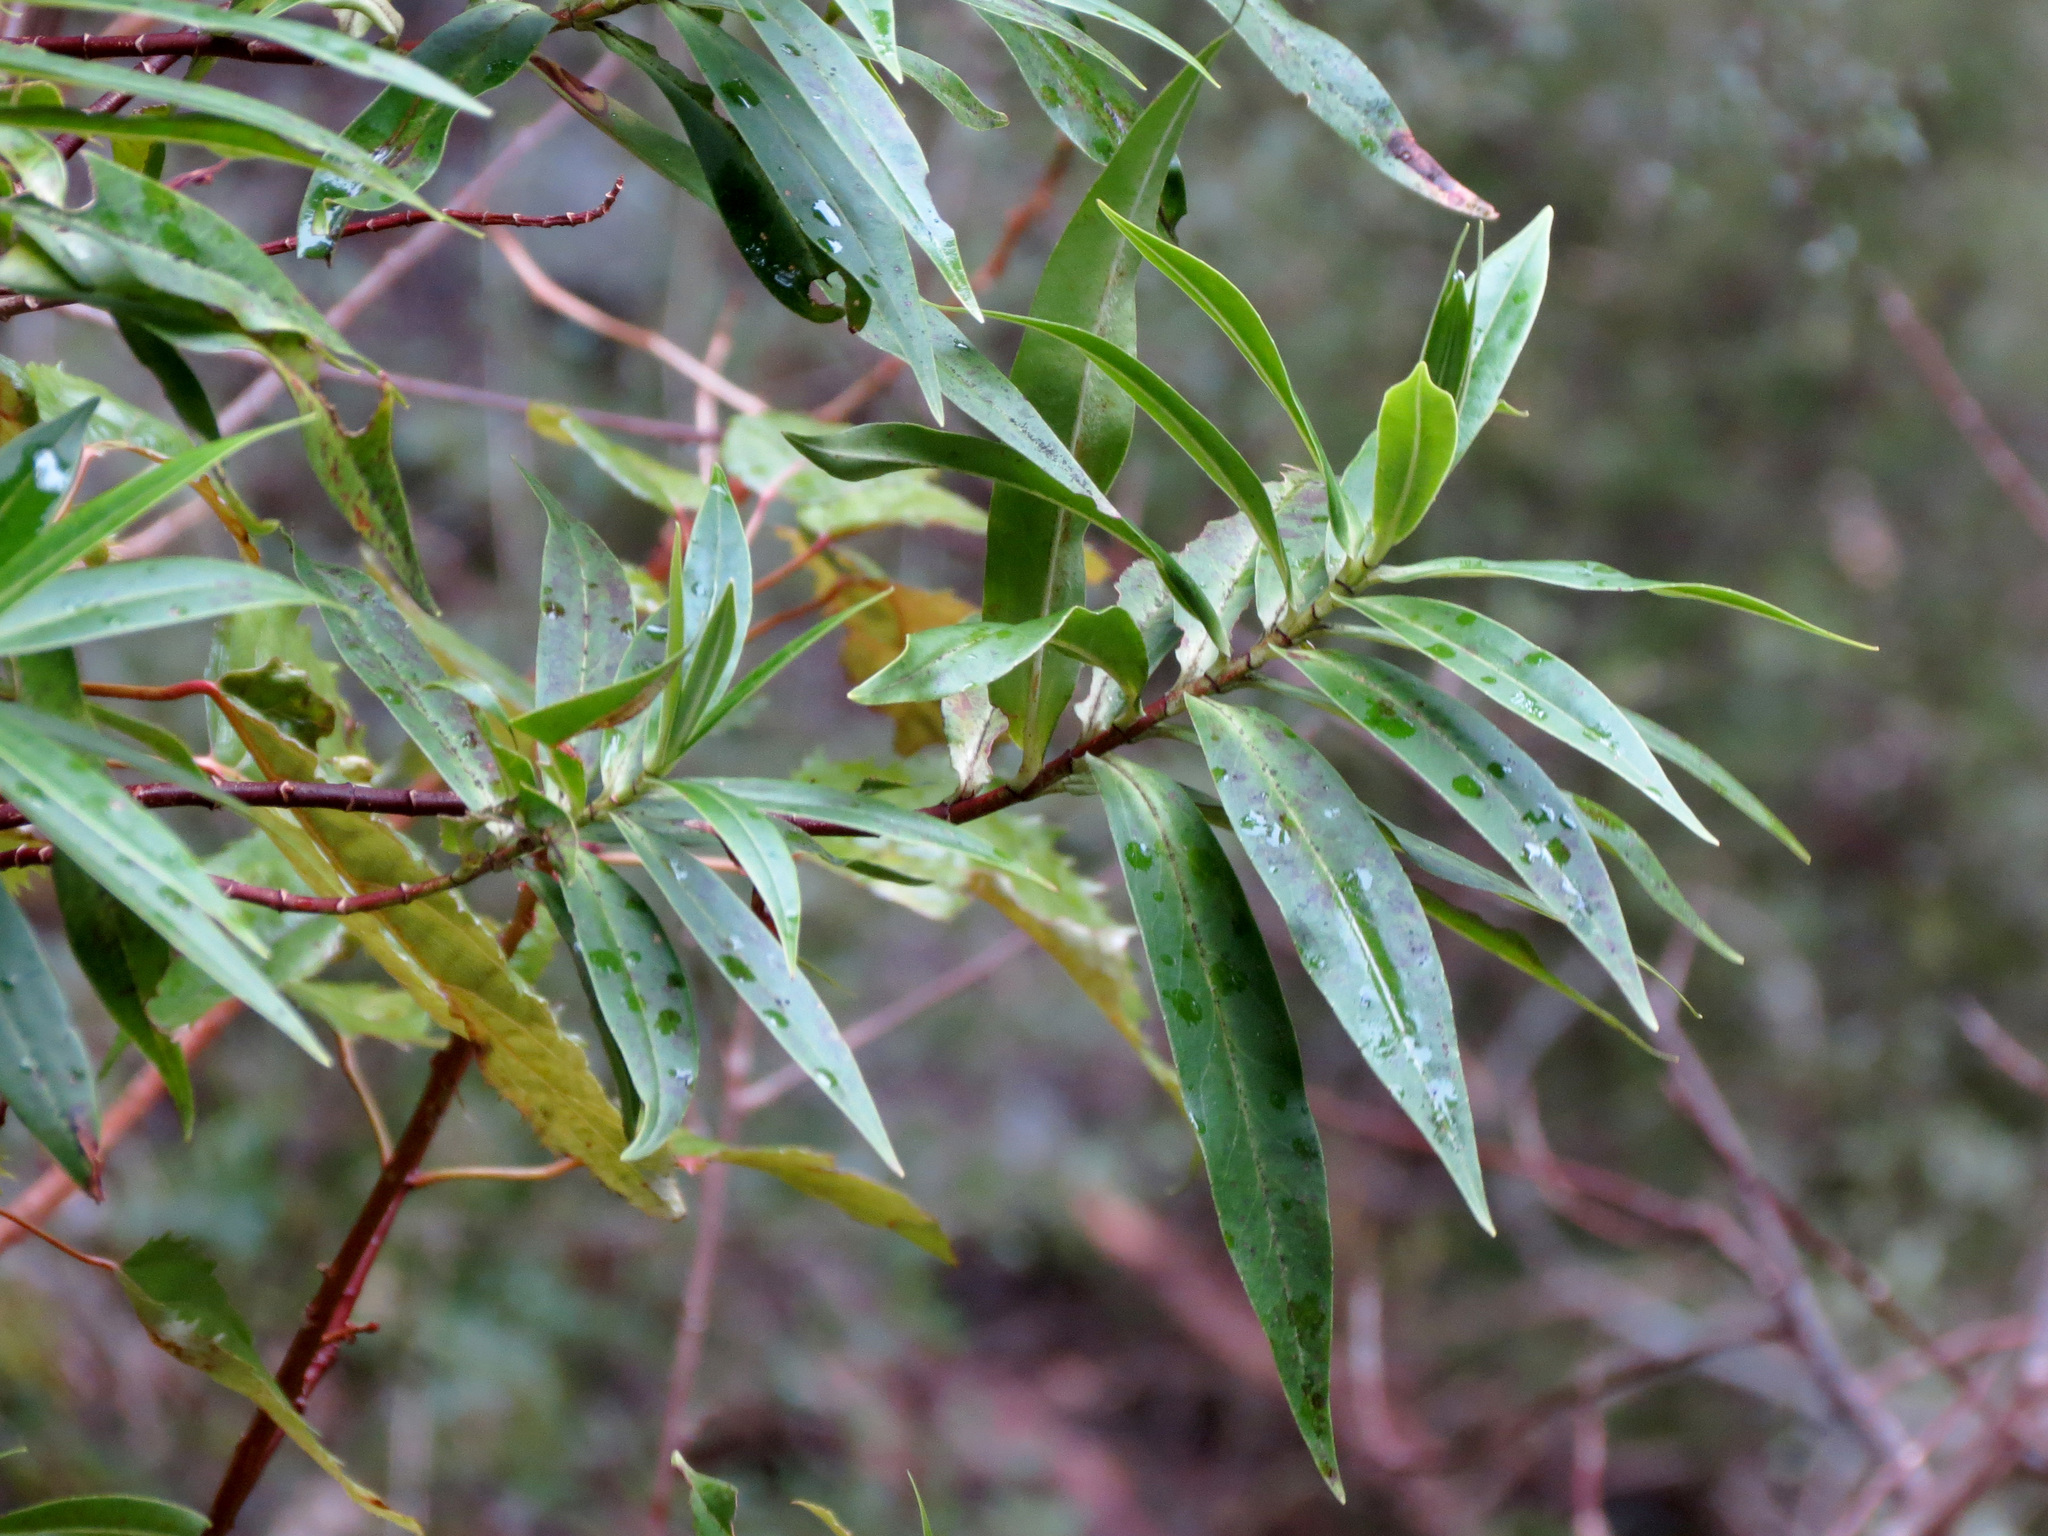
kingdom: Plantae
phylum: Tracheophyta
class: Magnoliopsida
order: Lamiales
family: Plantaginaceae
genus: Veronica
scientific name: Veronica salicifolia
